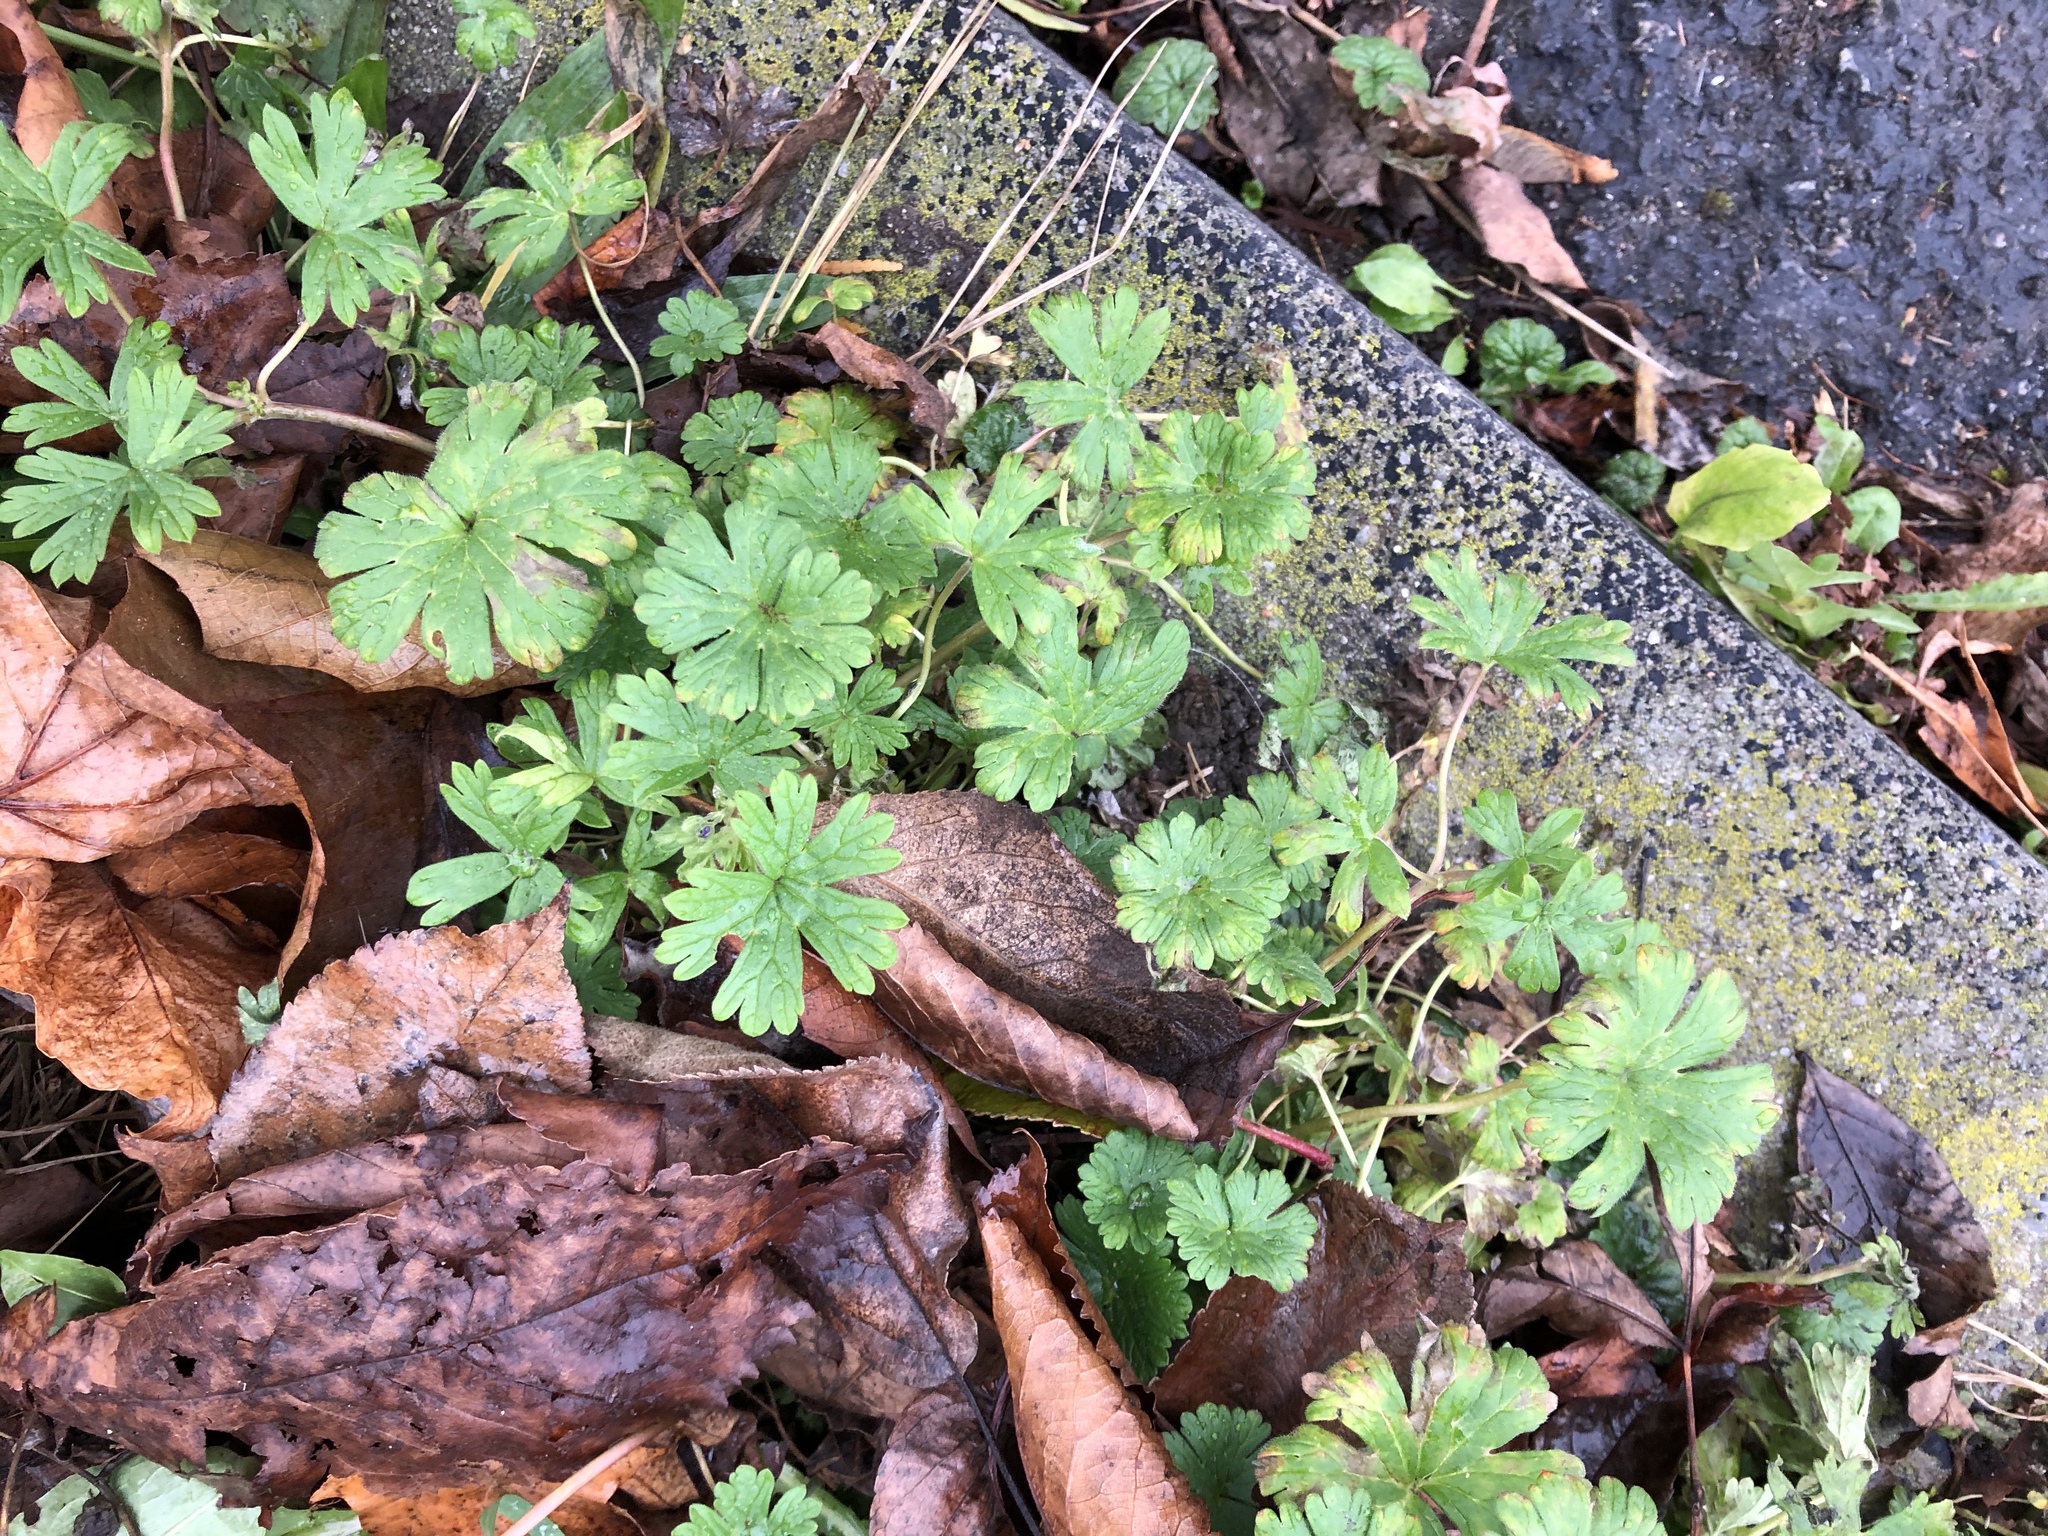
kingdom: Plantae
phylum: Tracheophyta
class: Magnoliopsida
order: Geraniales
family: Geraniaceae
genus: Geranium
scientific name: Geranium pusillum
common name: Small geranium
